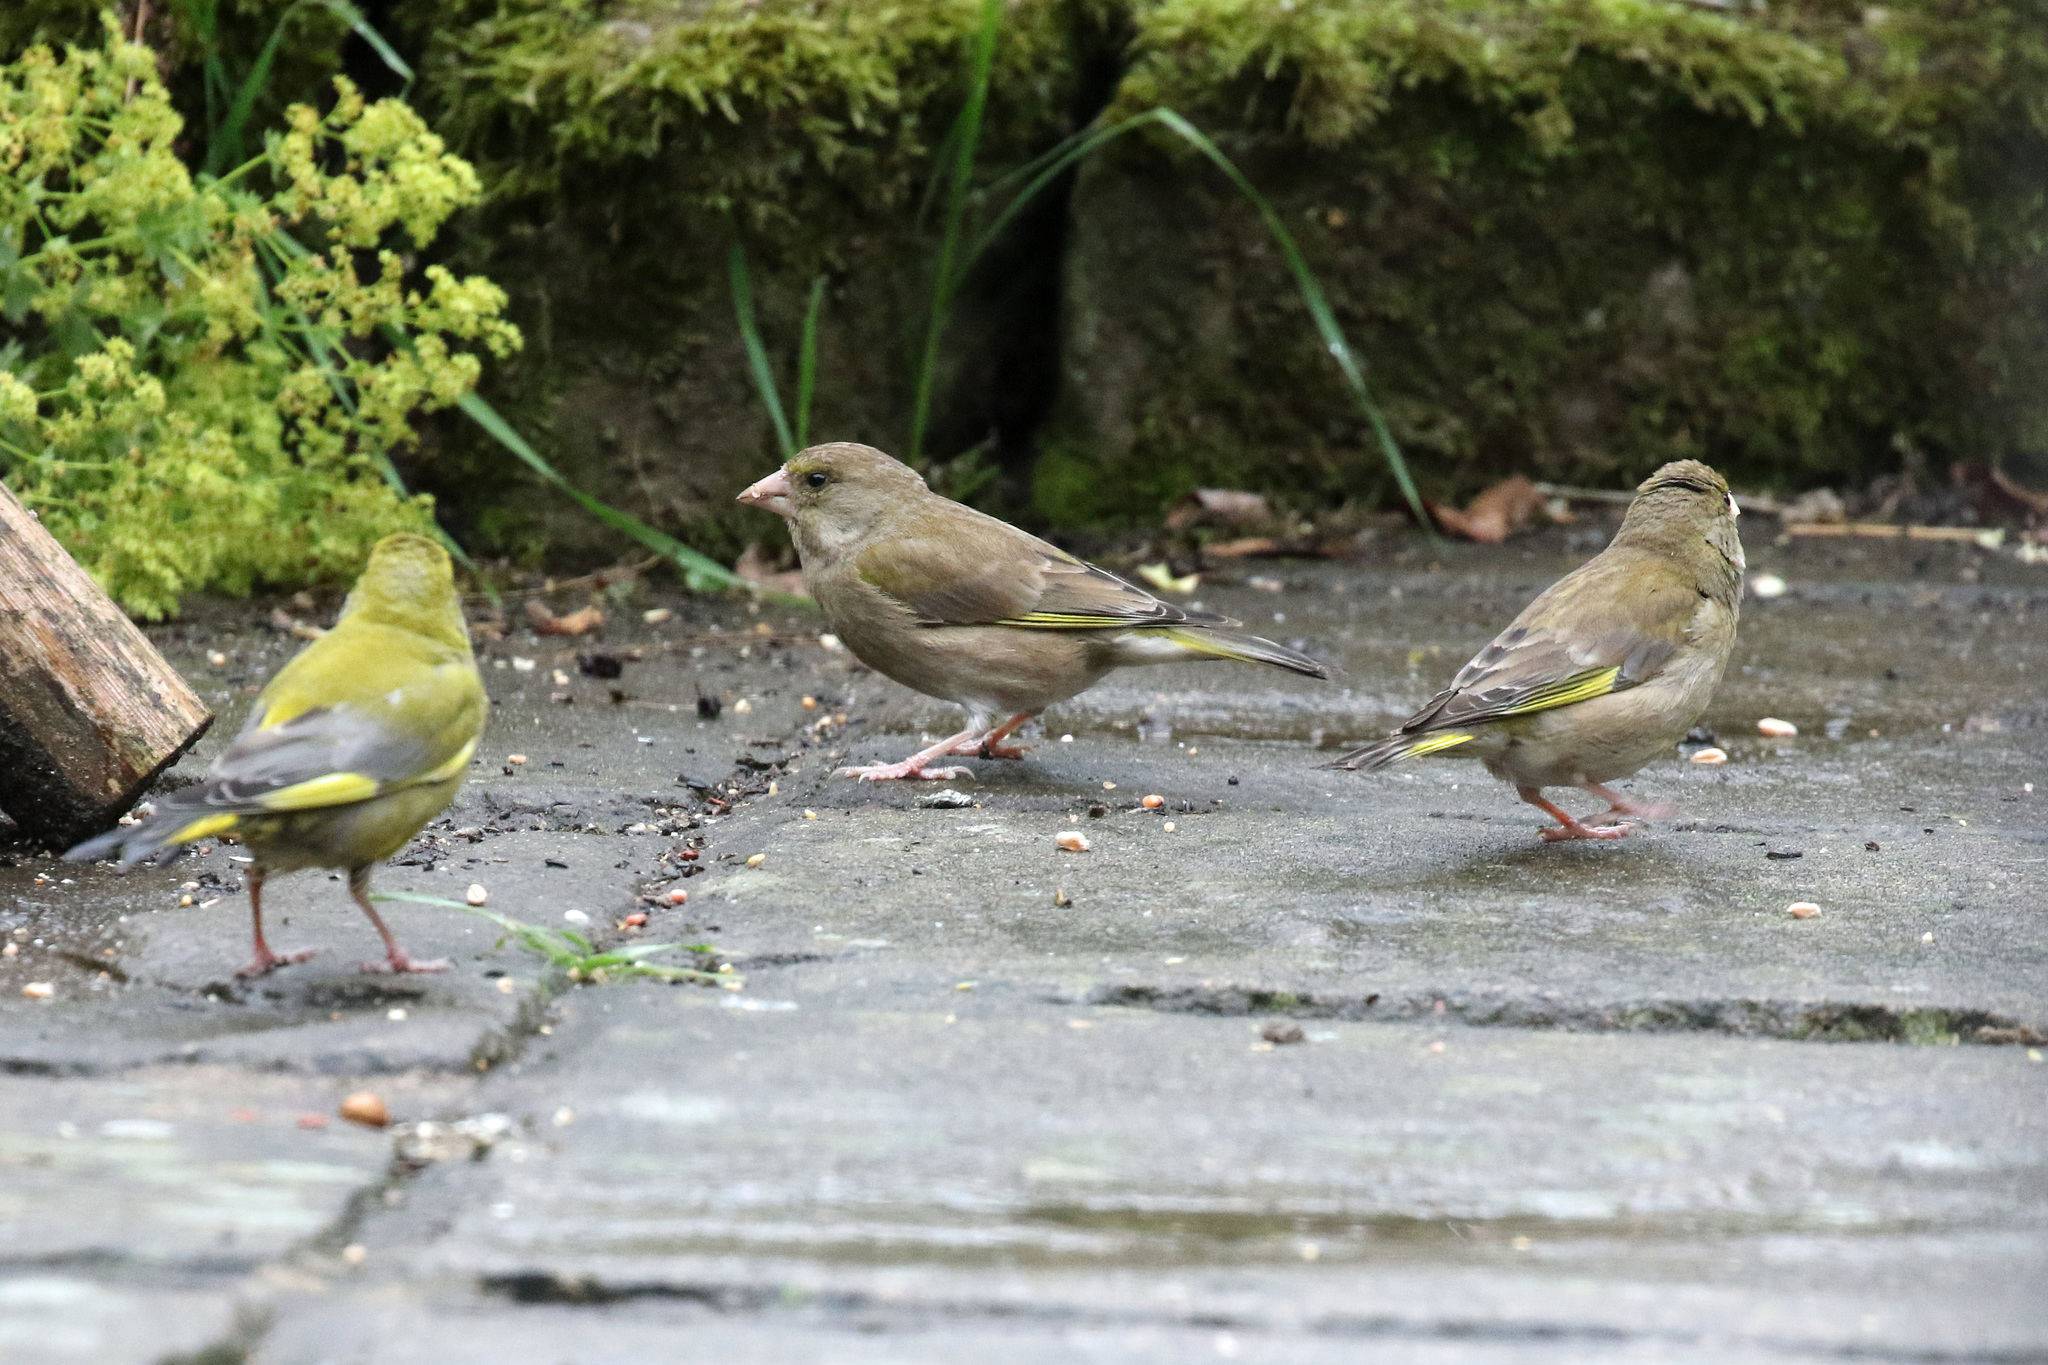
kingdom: Plantae
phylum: Tracheophyta
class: Liliopsida
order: Poales
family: Poaceae
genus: Chloris
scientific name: Chloris chloris
